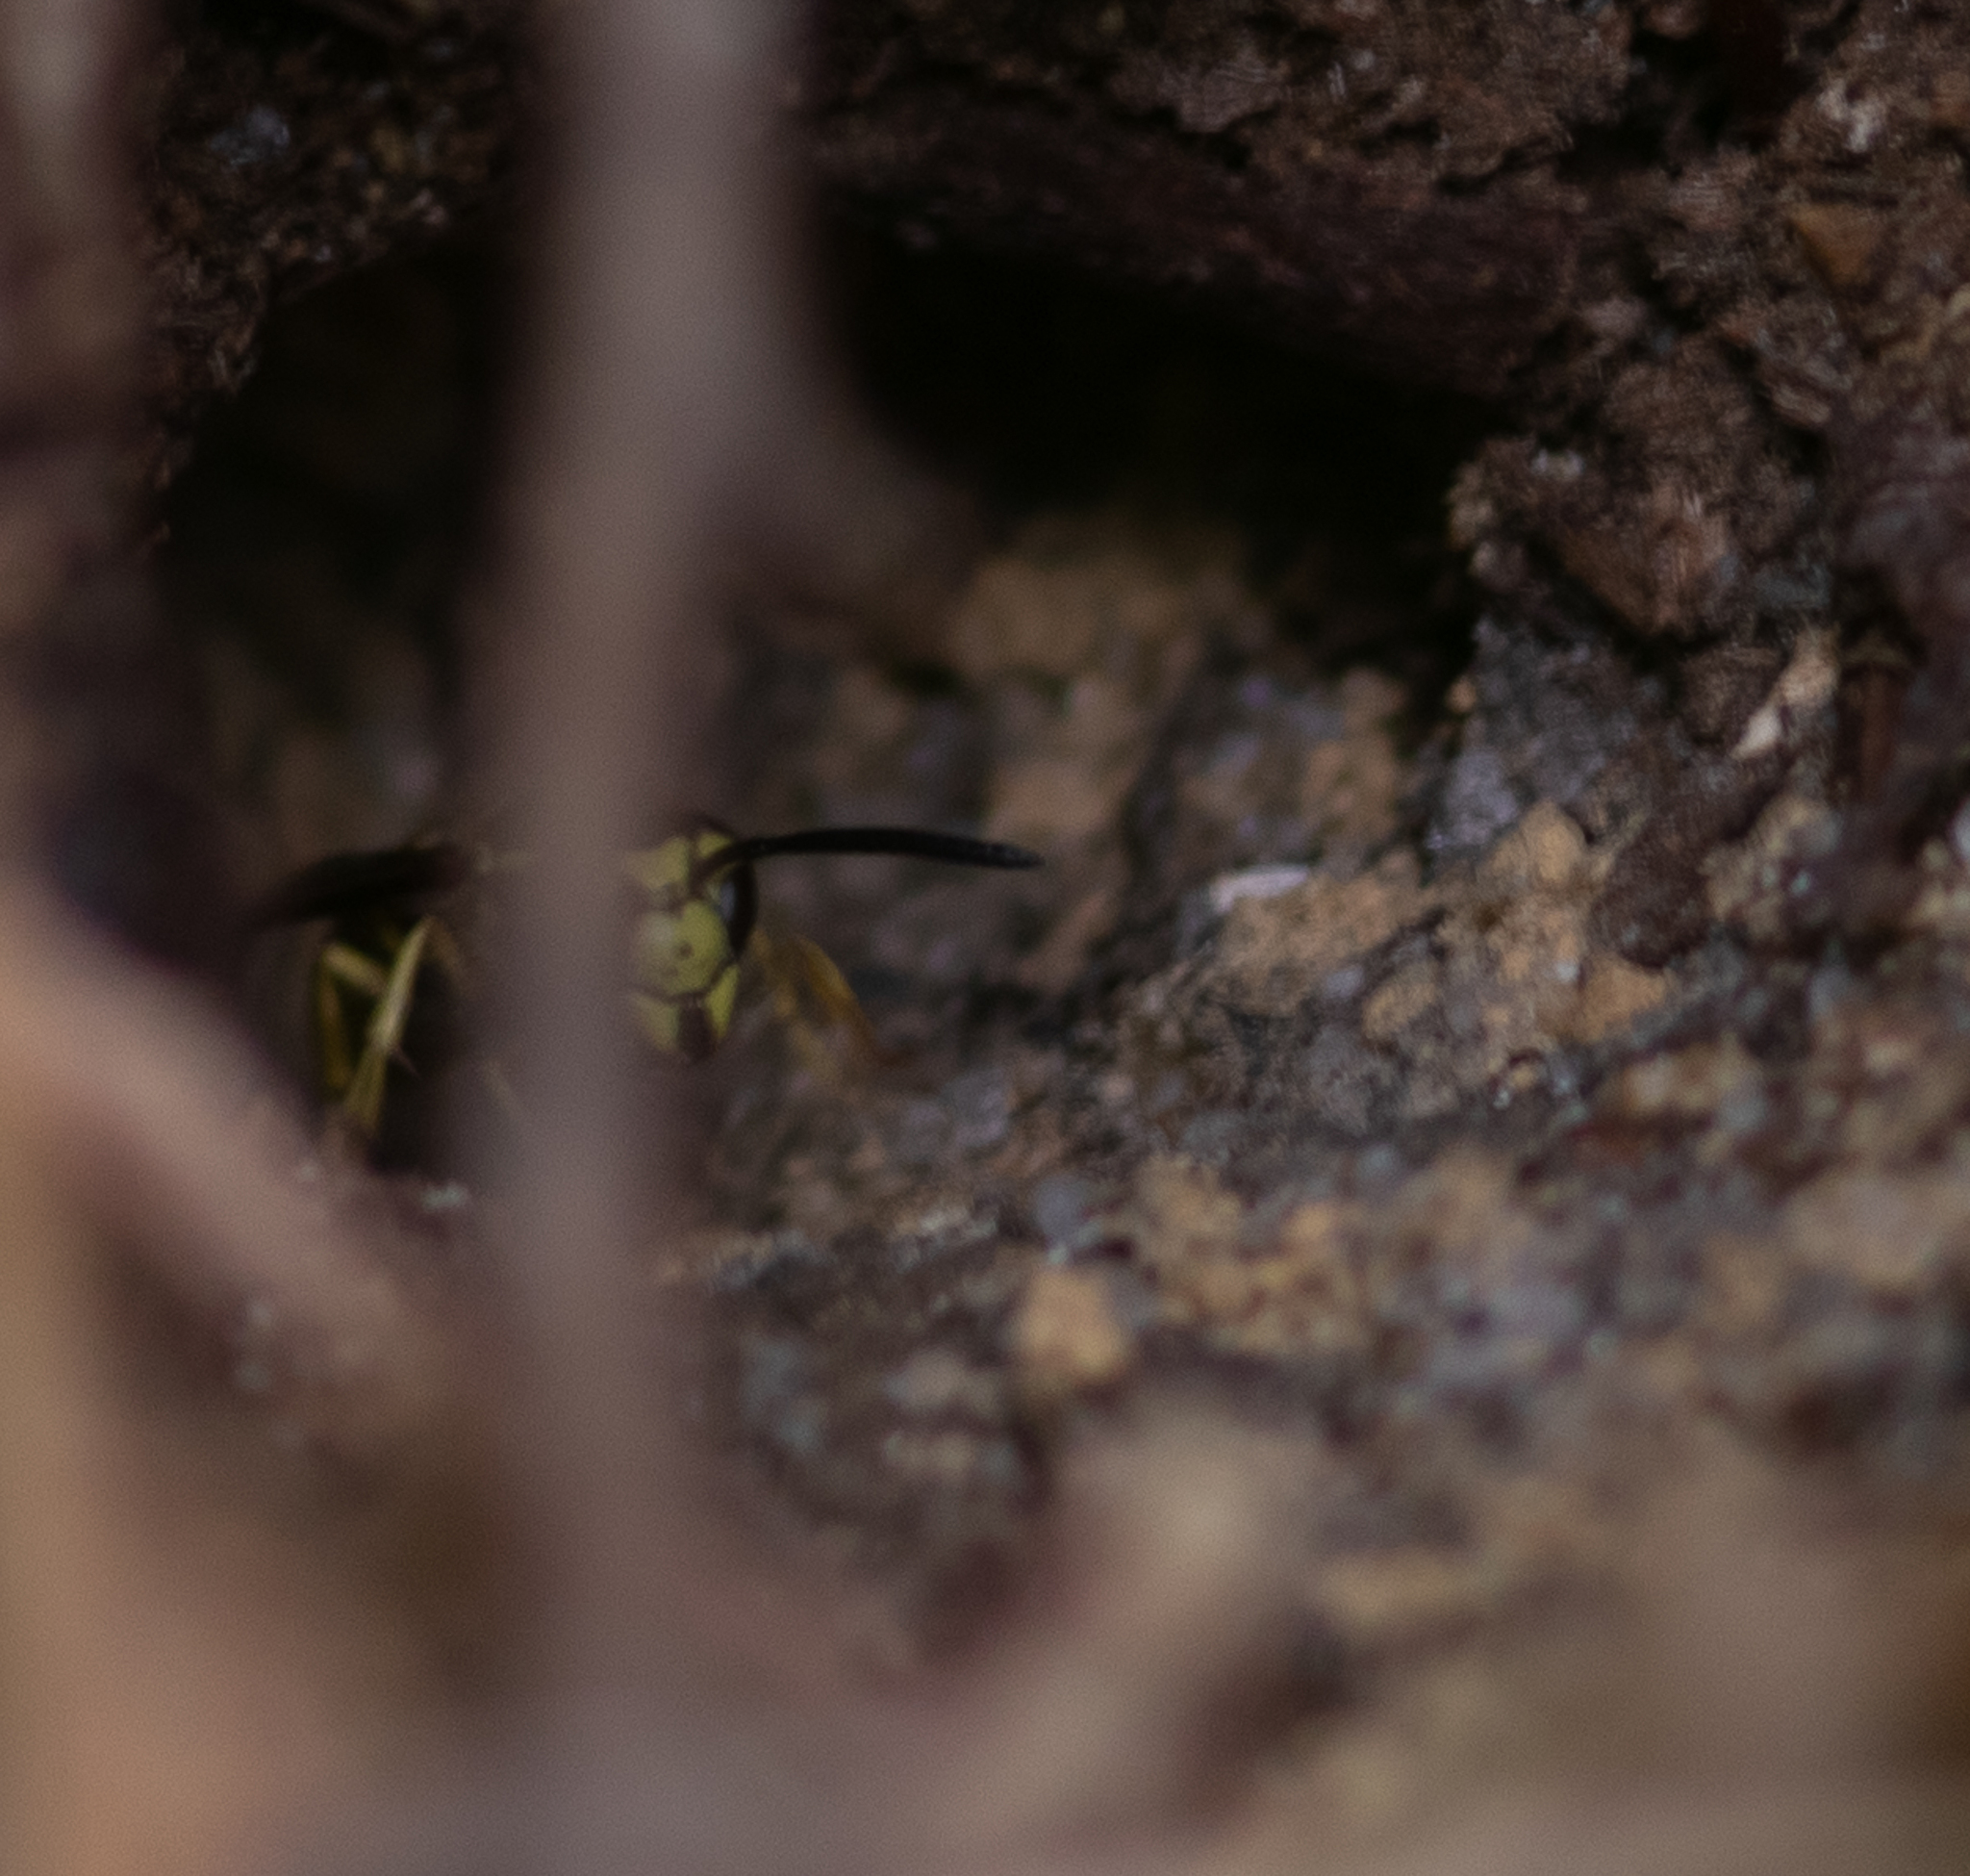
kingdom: Animalia
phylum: Arthropoda
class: Insecta
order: Hymenoptera
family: Vespidae
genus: Vespula
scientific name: Vespula maculifrons
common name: Eastern yellowjacket
